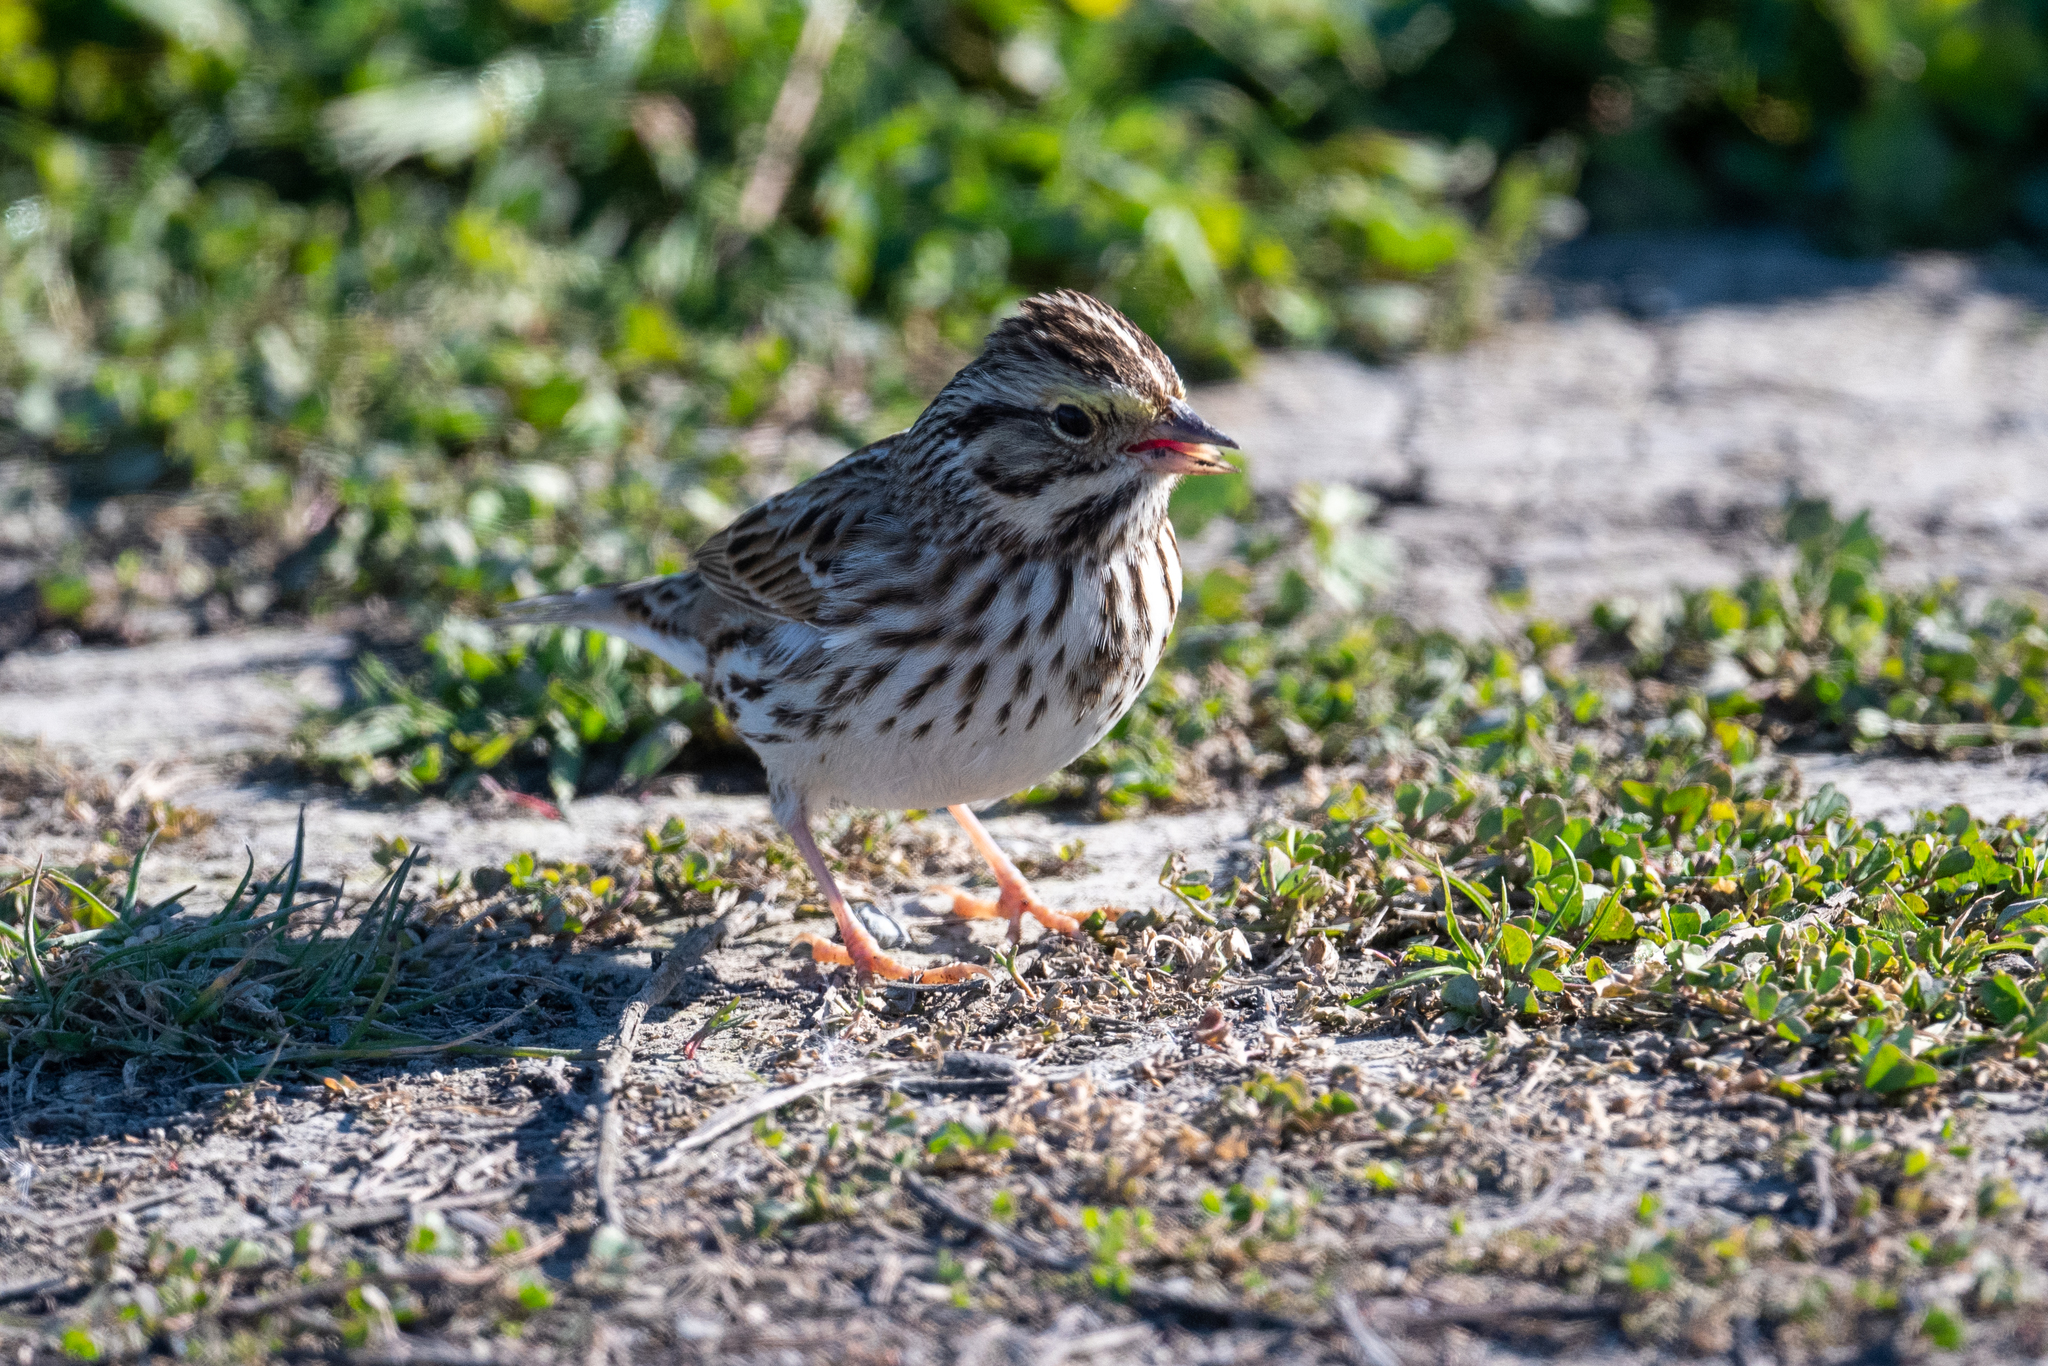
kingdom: Animalia
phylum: Chordata
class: Aves
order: Passeriformes
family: Passerellidae
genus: Passerculus
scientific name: Passerculus sandwichensis
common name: Savannah sparrow
